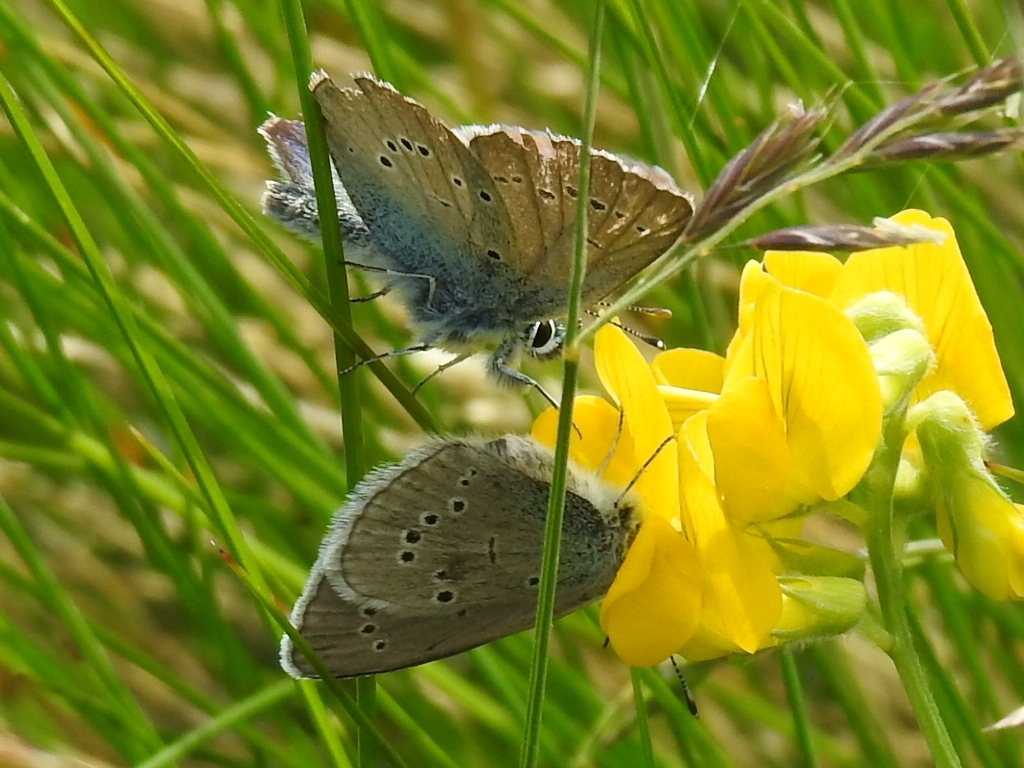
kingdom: Animalia
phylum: Arthropoda
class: Insecta
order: Lepidoptera
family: Lycaenidae
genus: Cyaniris
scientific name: Cyaniris semiargus
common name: Mazarine blue
